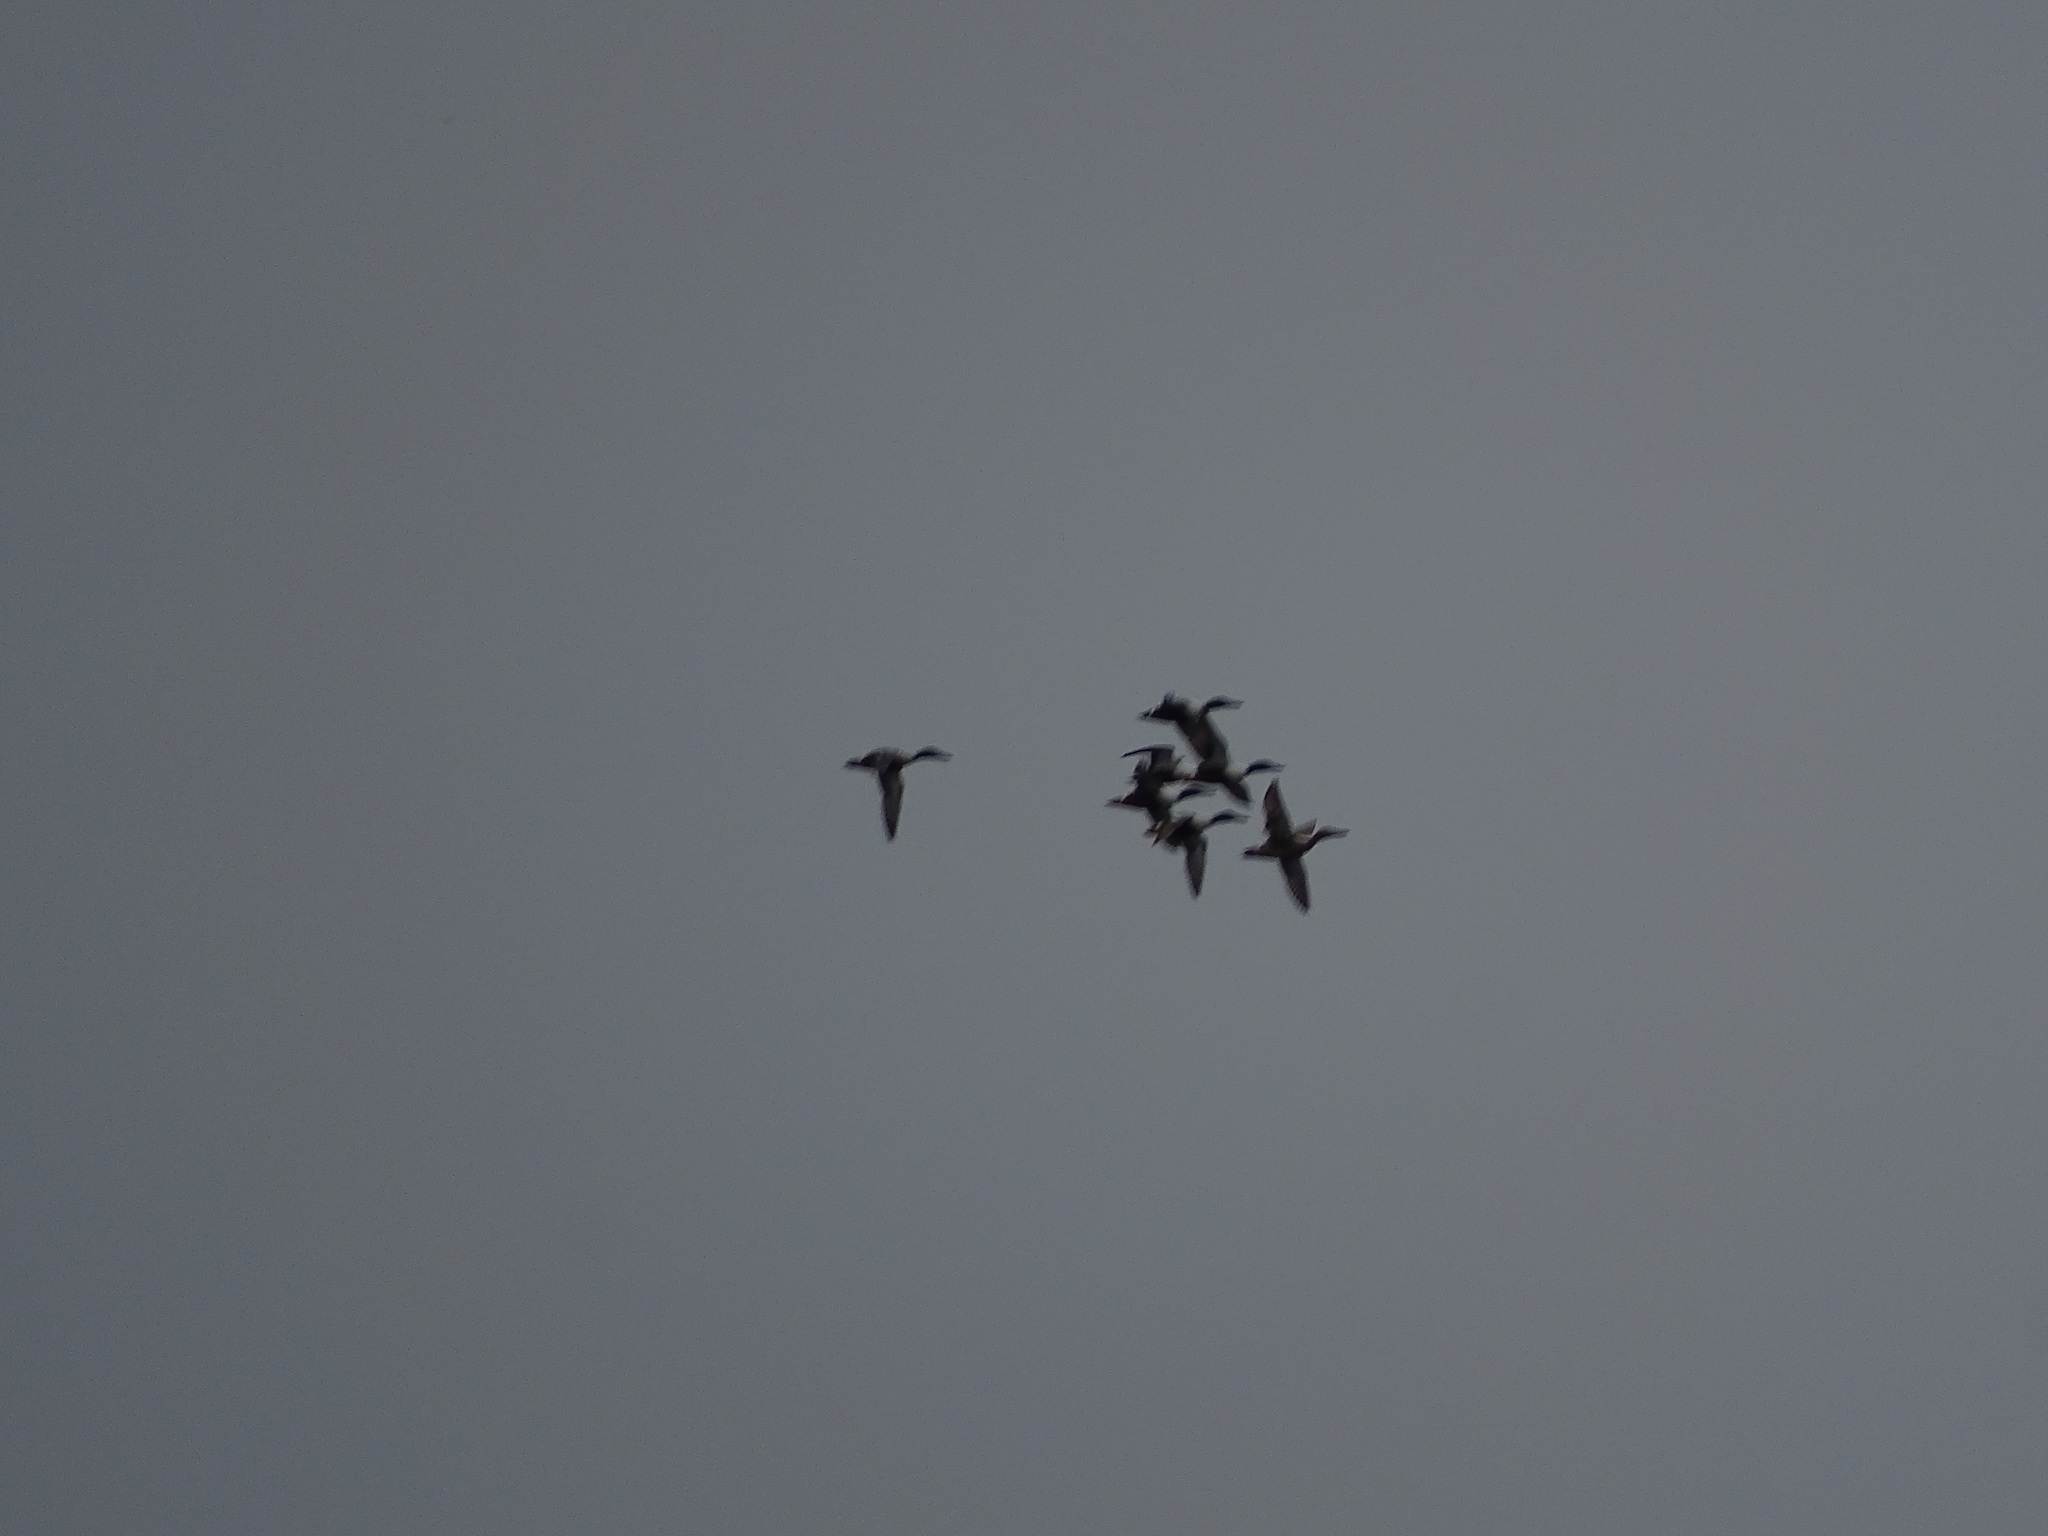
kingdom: Animalia
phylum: Chordata
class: Aves
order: Anseriformes
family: Anatidae
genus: Spatula
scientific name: Spatula clypeata
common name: Northern shoveler
